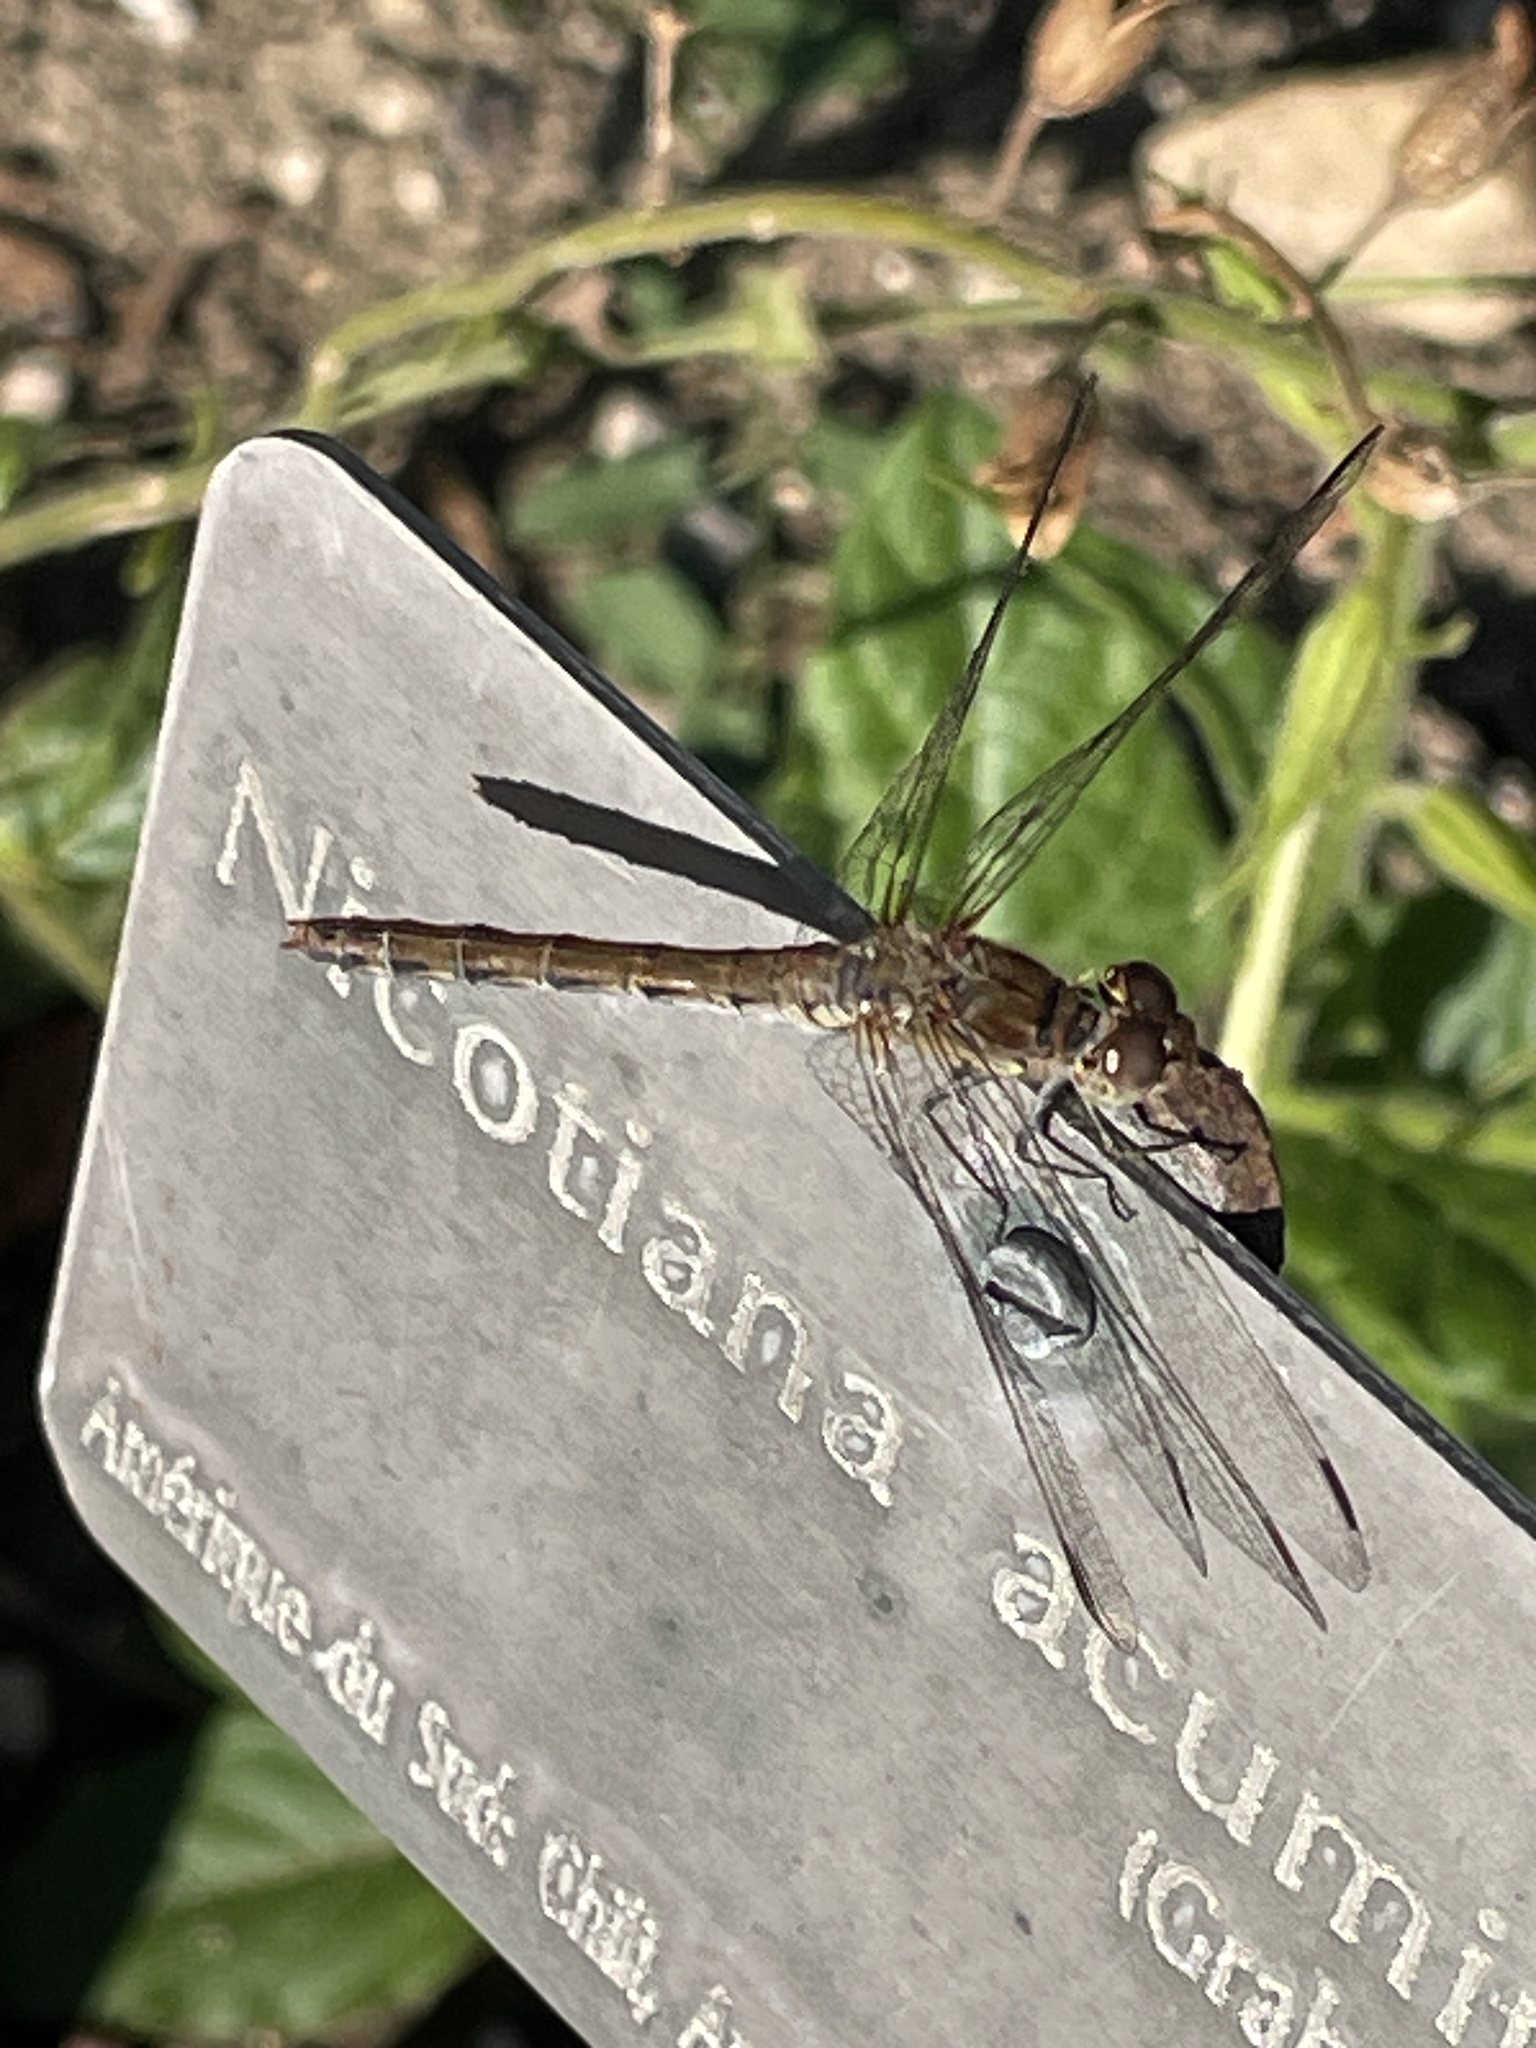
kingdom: Animalia
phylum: Arthropoda
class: Insecta
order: Odonata
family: Libellulidae
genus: Sympetrum
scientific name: Sympetrum striolatum
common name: Common darter
